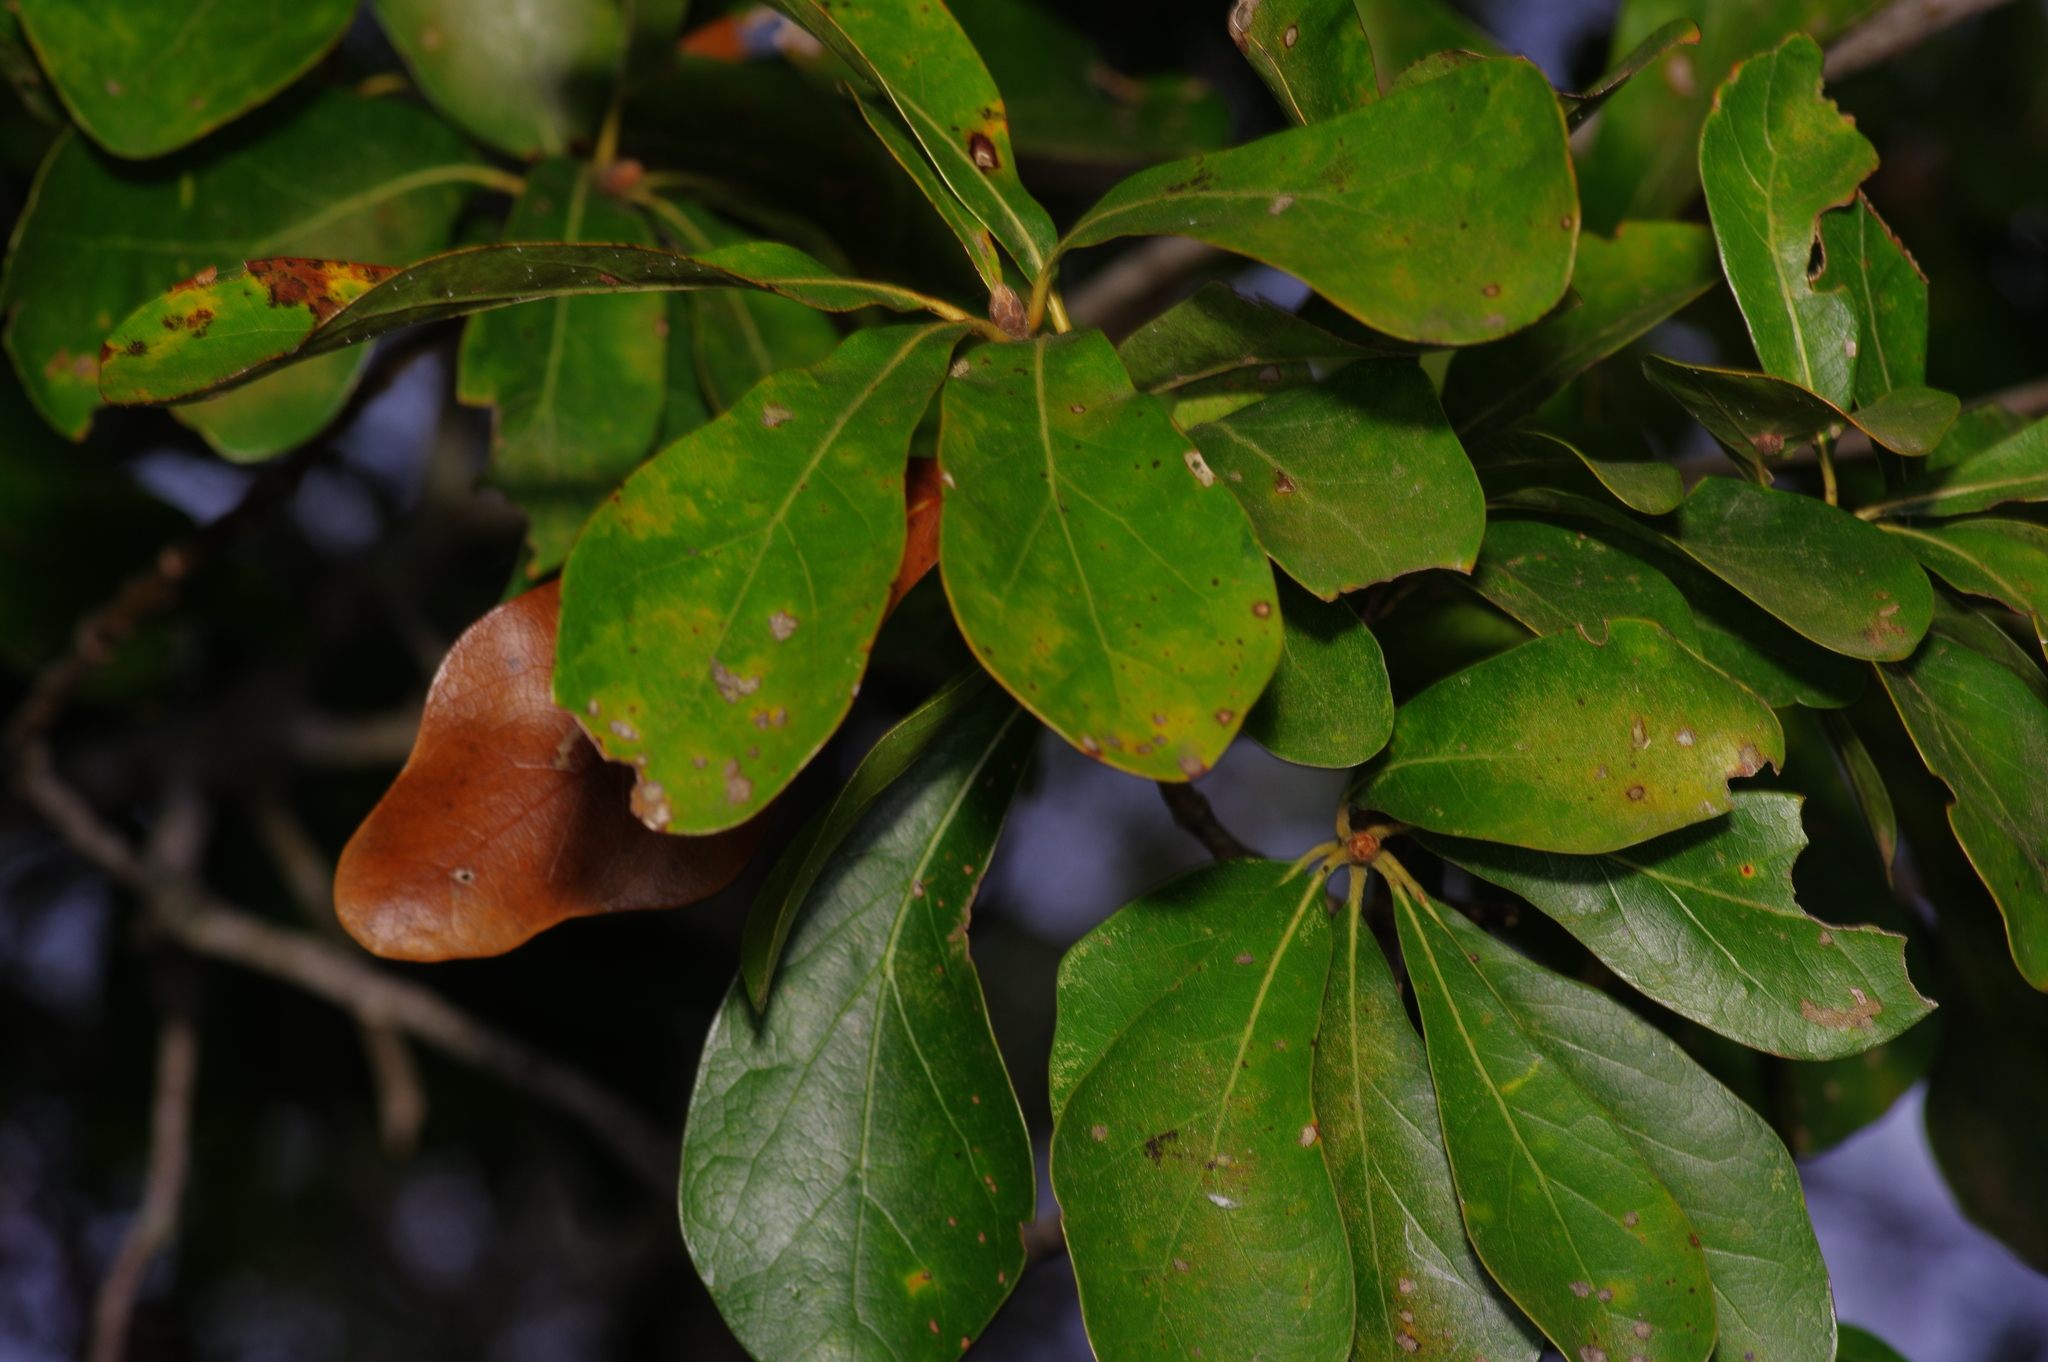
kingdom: Plantae
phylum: Tracheophyta
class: Magnoliopsida
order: Fagales
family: Fagaceae
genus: Quercus
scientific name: Quercus nigra
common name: Water oak
